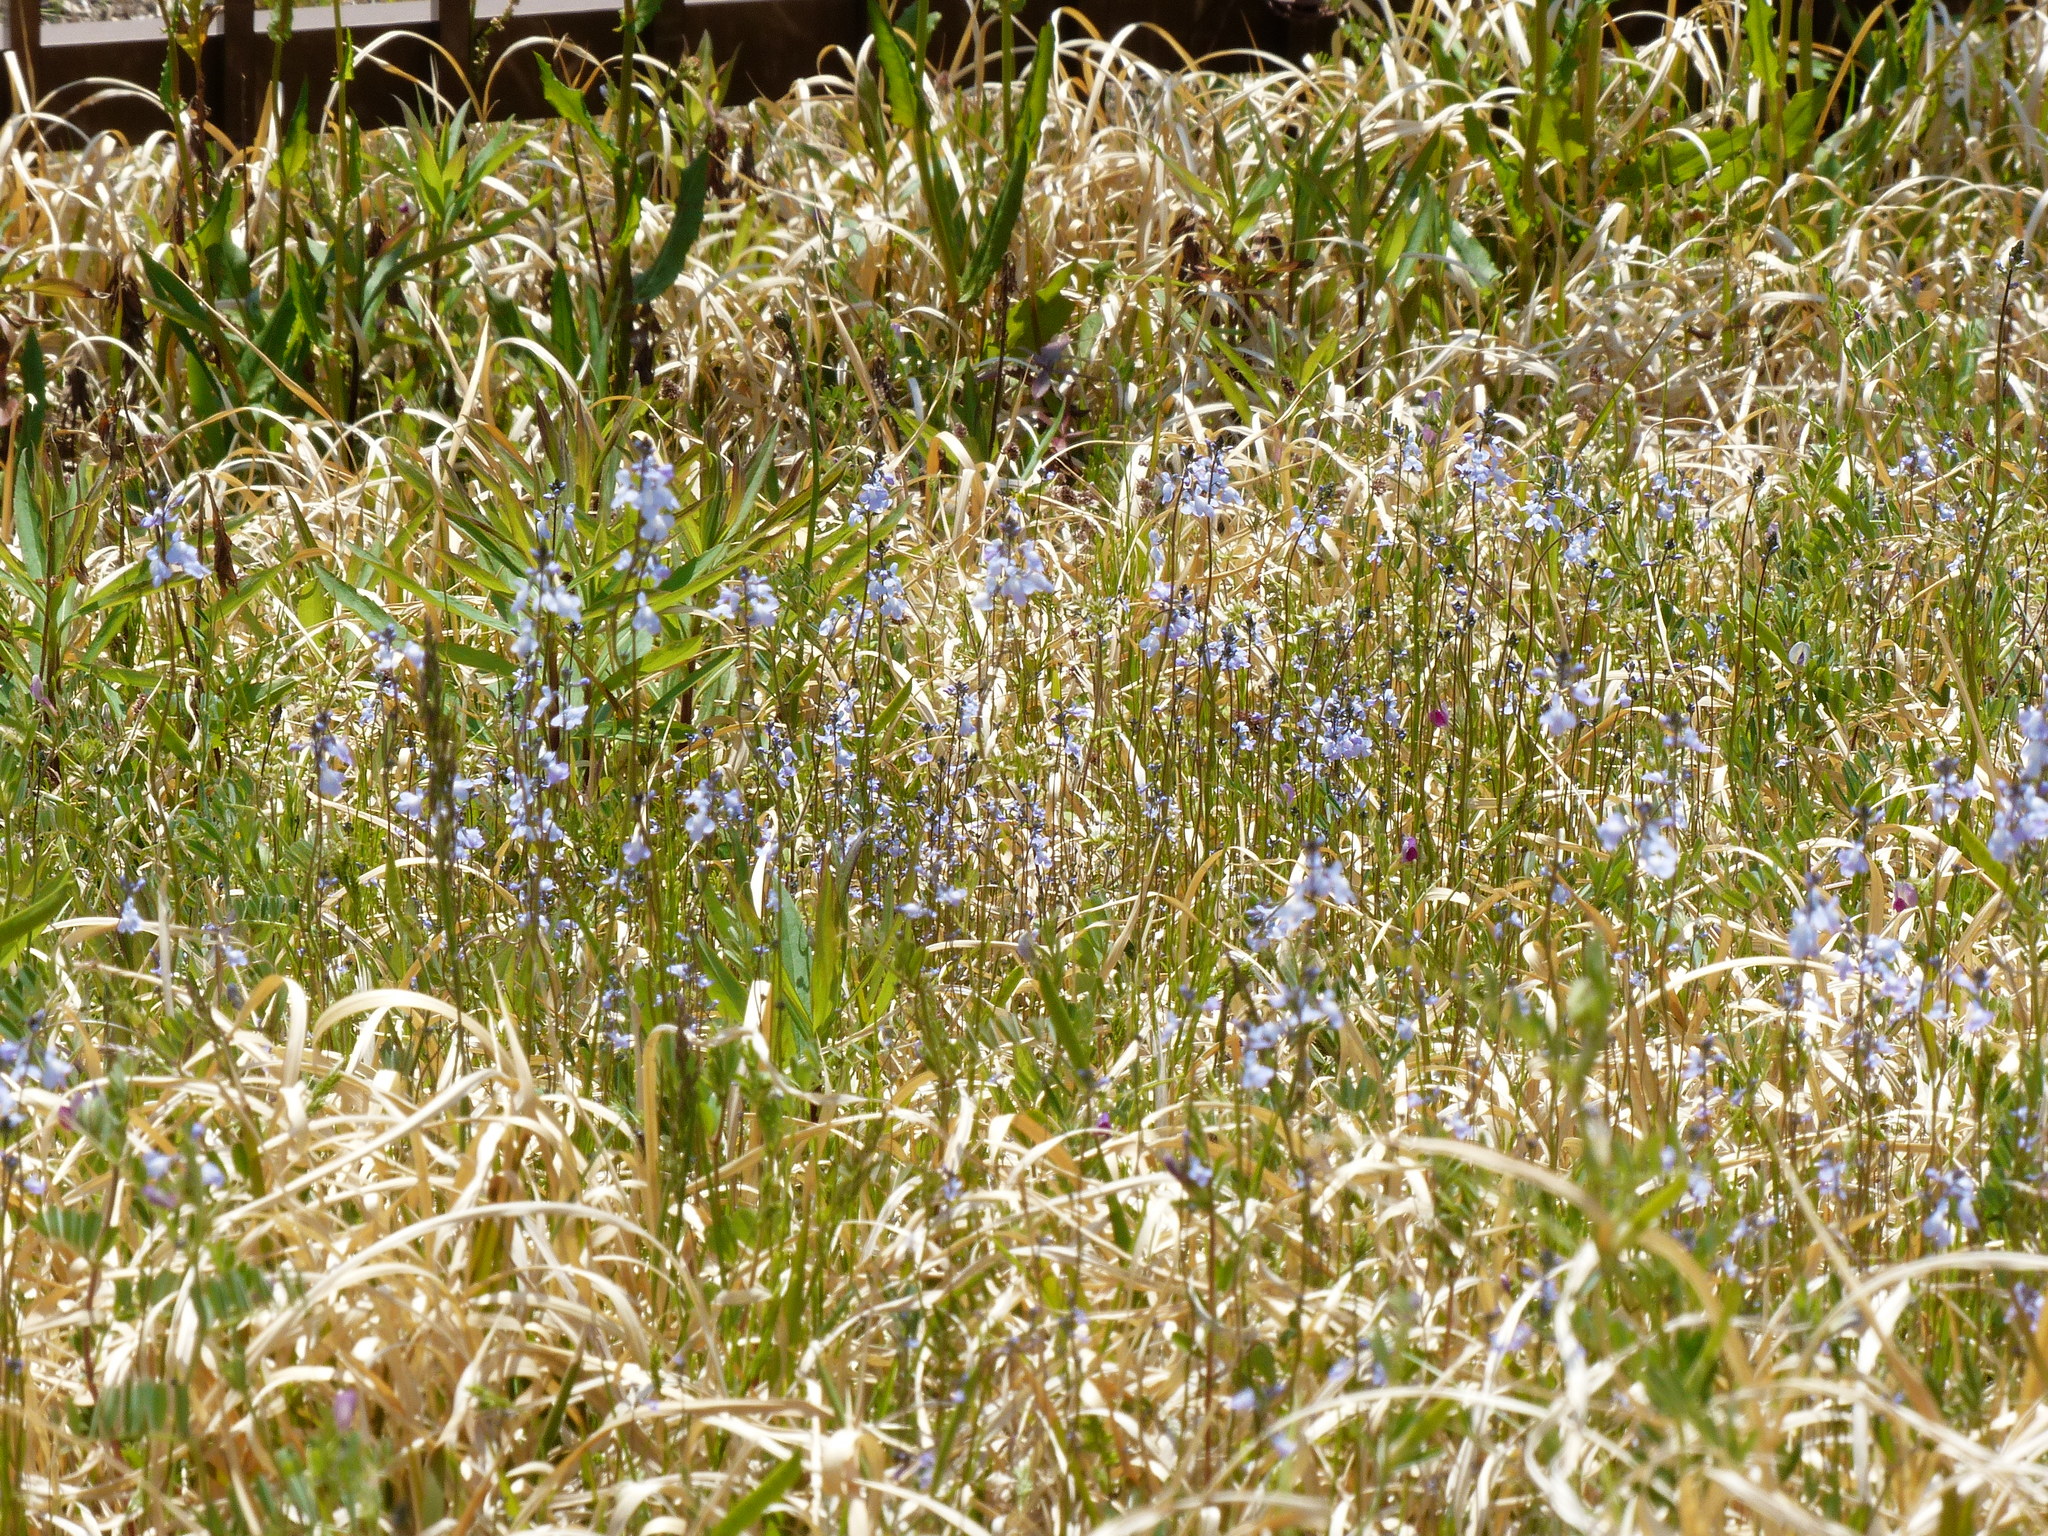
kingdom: Plantae
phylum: Tracheophyta
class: Magnoliopsida
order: Lamiales
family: Plantaginaceae
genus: Nuttallanthus
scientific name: Nuttallanthus canadensis
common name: Blue toadflax
